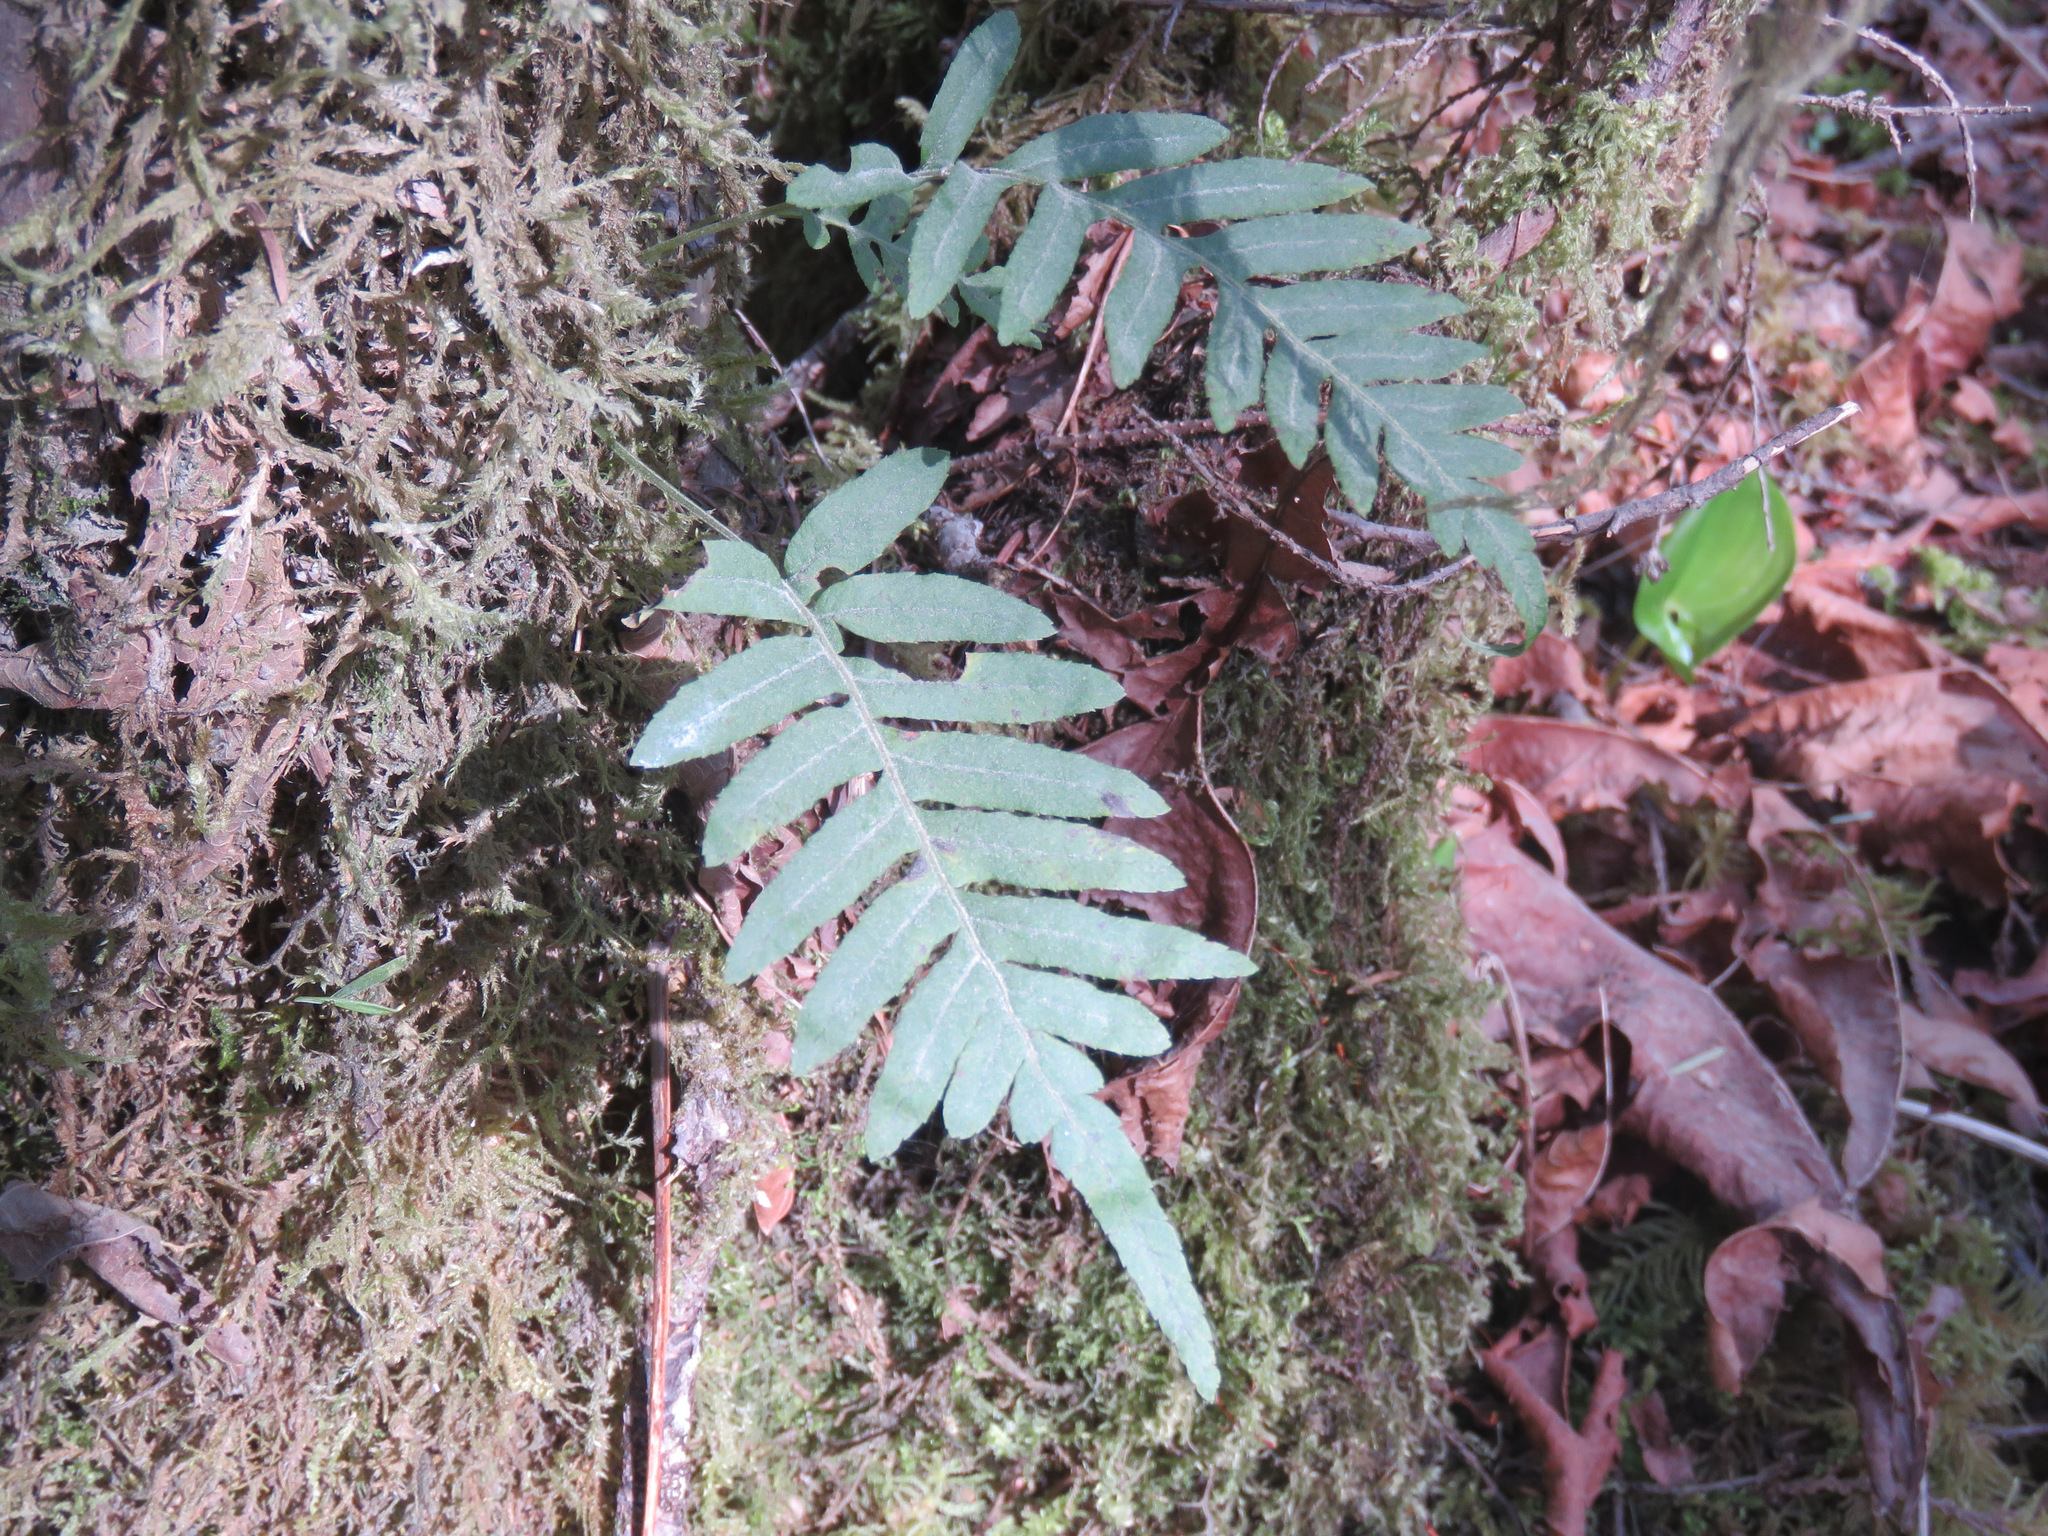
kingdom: Plantae
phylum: Tracheophyta
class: Polypodiopsida
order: Polypodiales
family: Polypodiaceae
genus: Polypodium
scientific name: Polypodium glycyrrhiza
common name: Licorice fern
